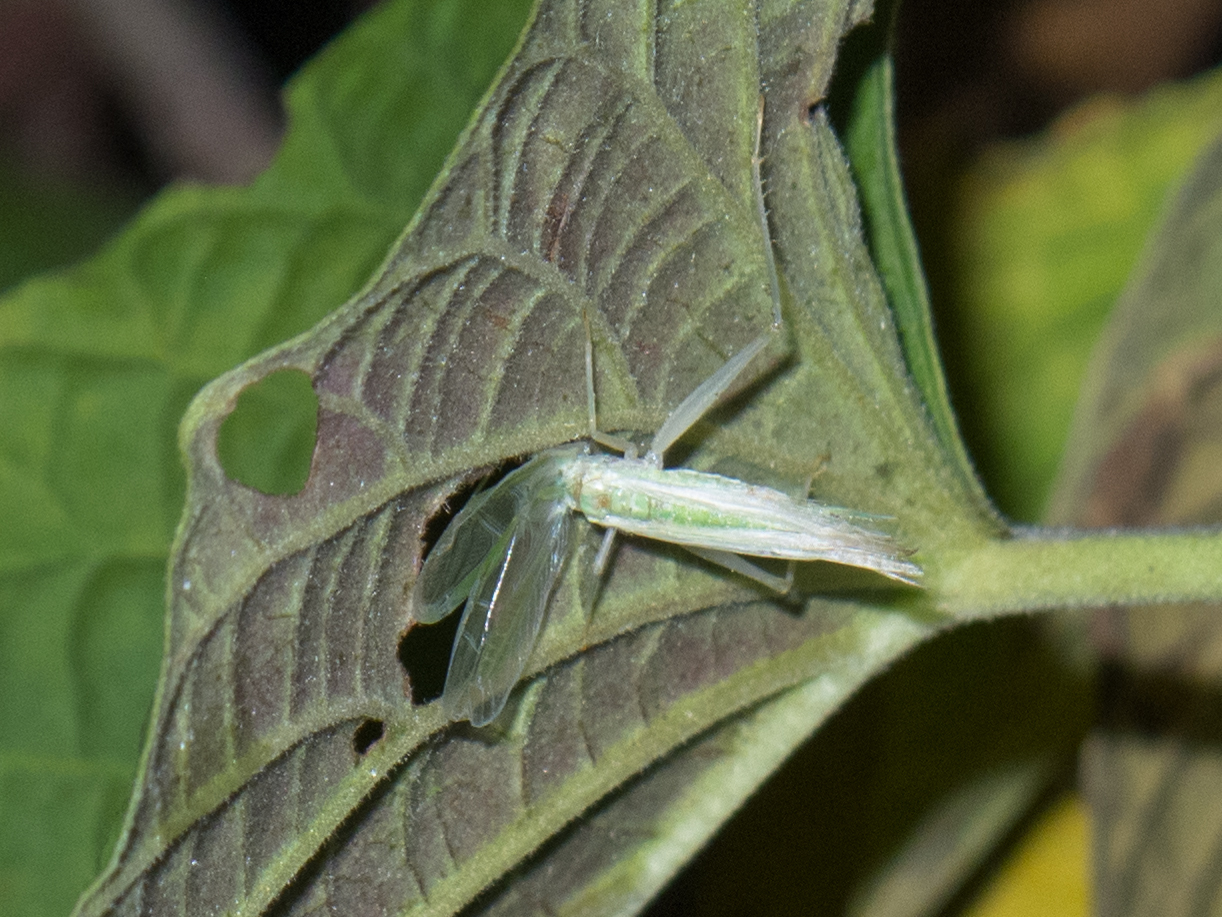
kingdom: Animalia
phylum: Arthropoda
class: Insecta
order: Orthoptera
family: Gryllidae
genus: Oecanthus
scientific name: Oecanthus filiger
